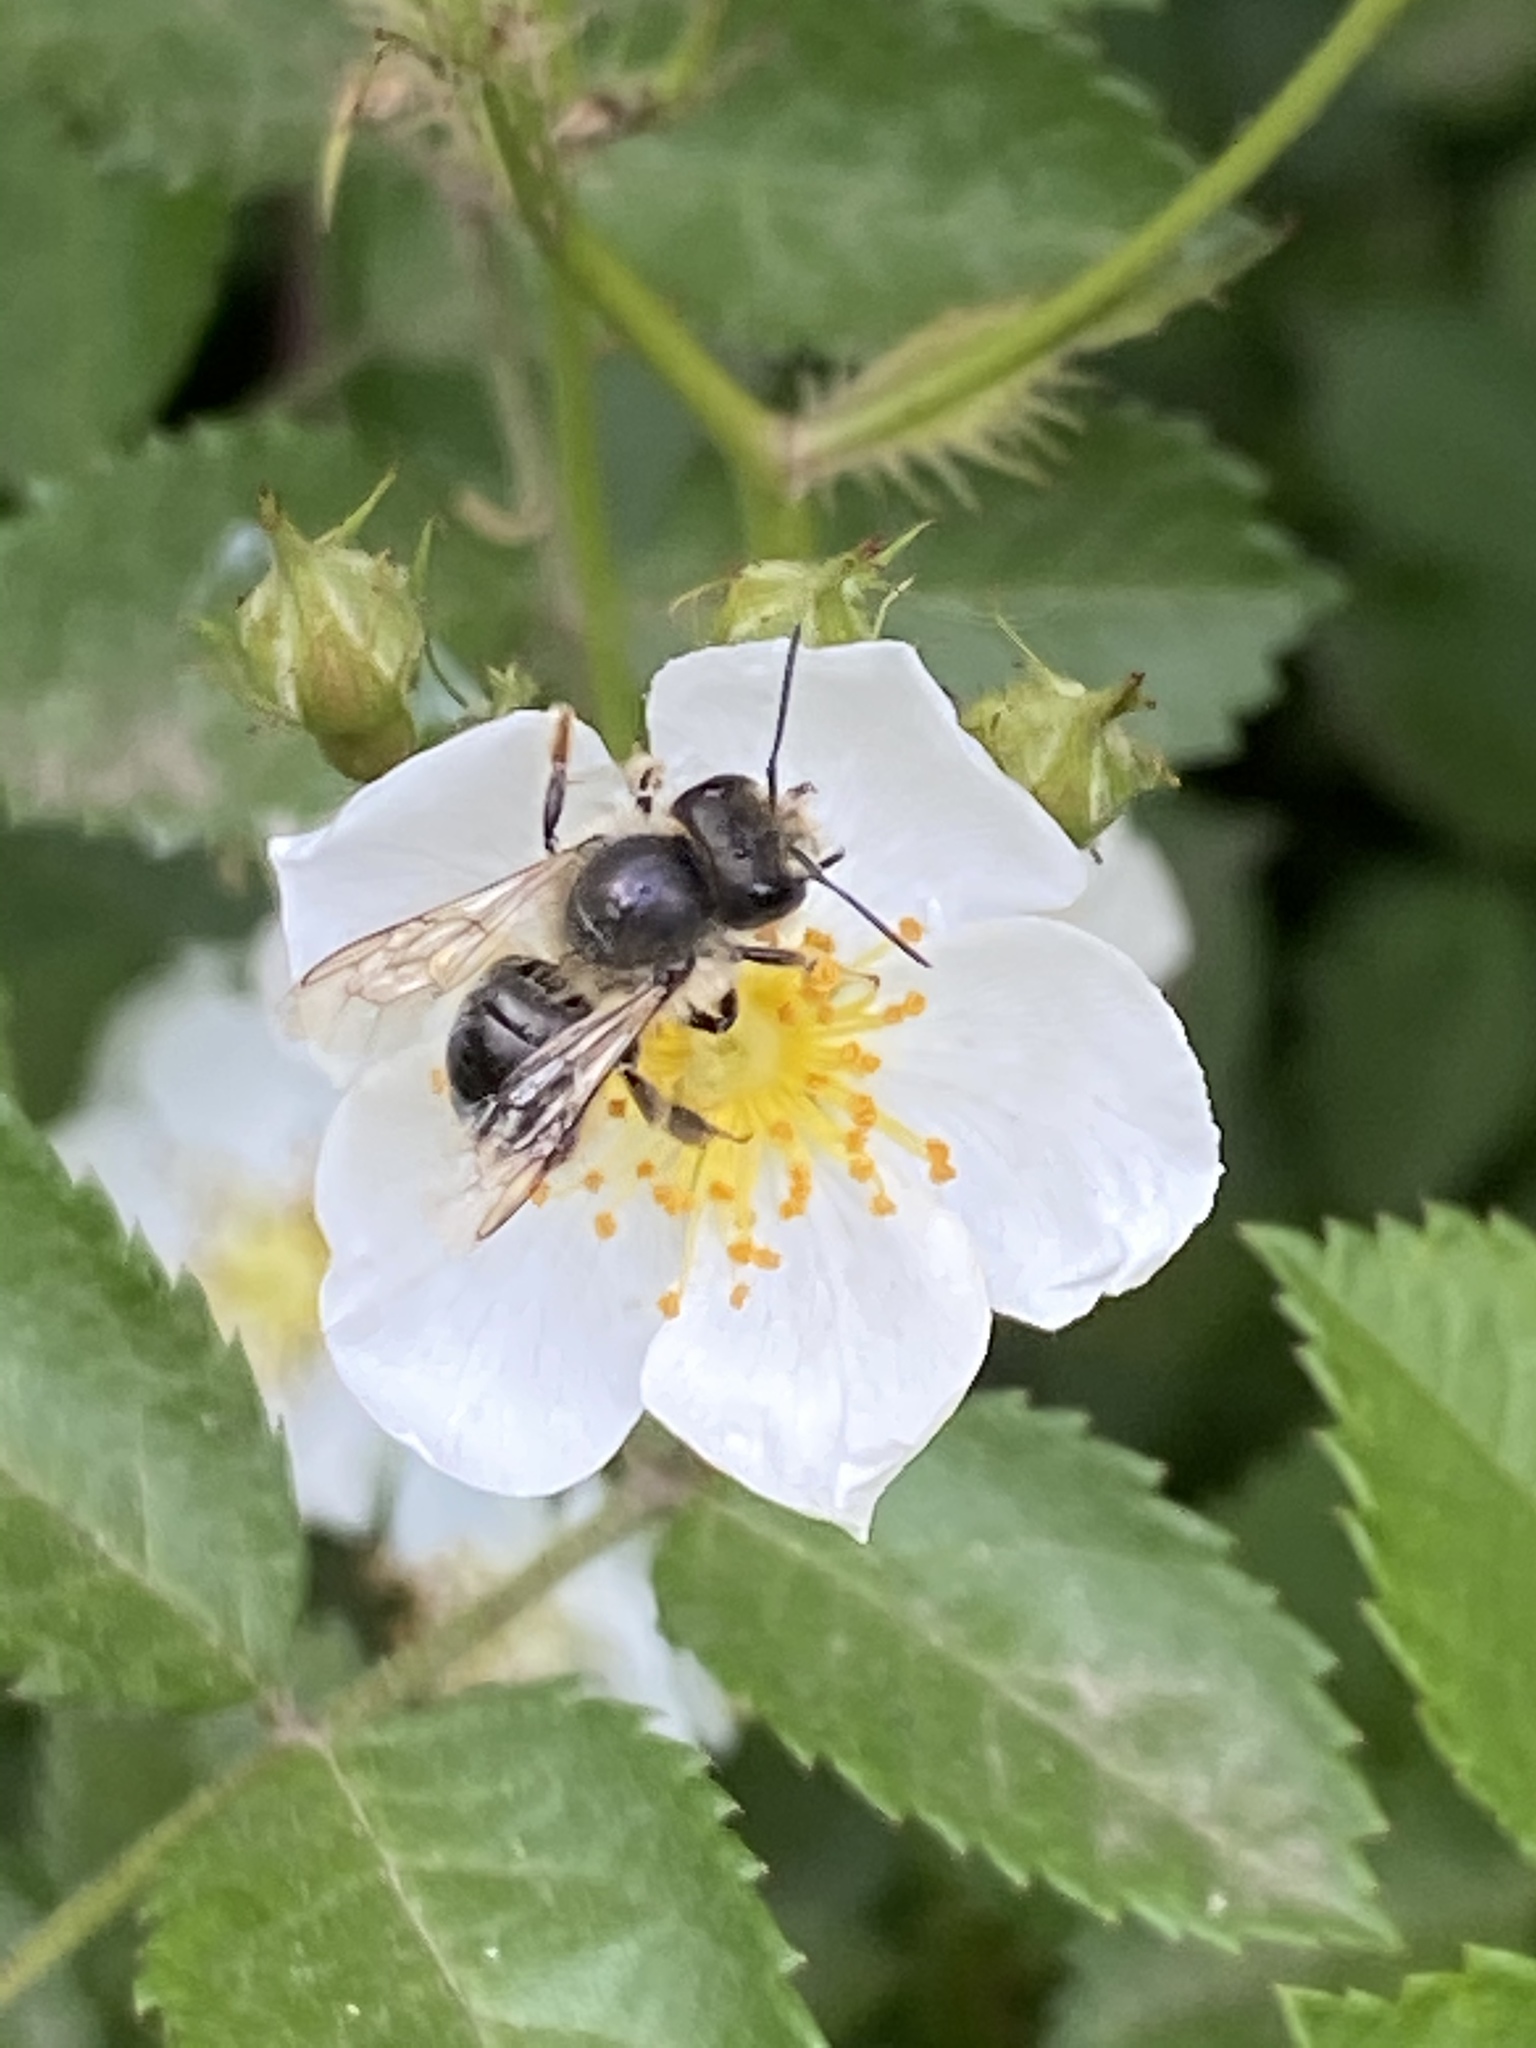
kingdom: Animalia
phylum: Arthropoda
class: Insecta
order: Hymenoptera
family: Megachilidae
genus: Osmia
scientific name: Osmia cornifrons
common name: Horn-faced bee
